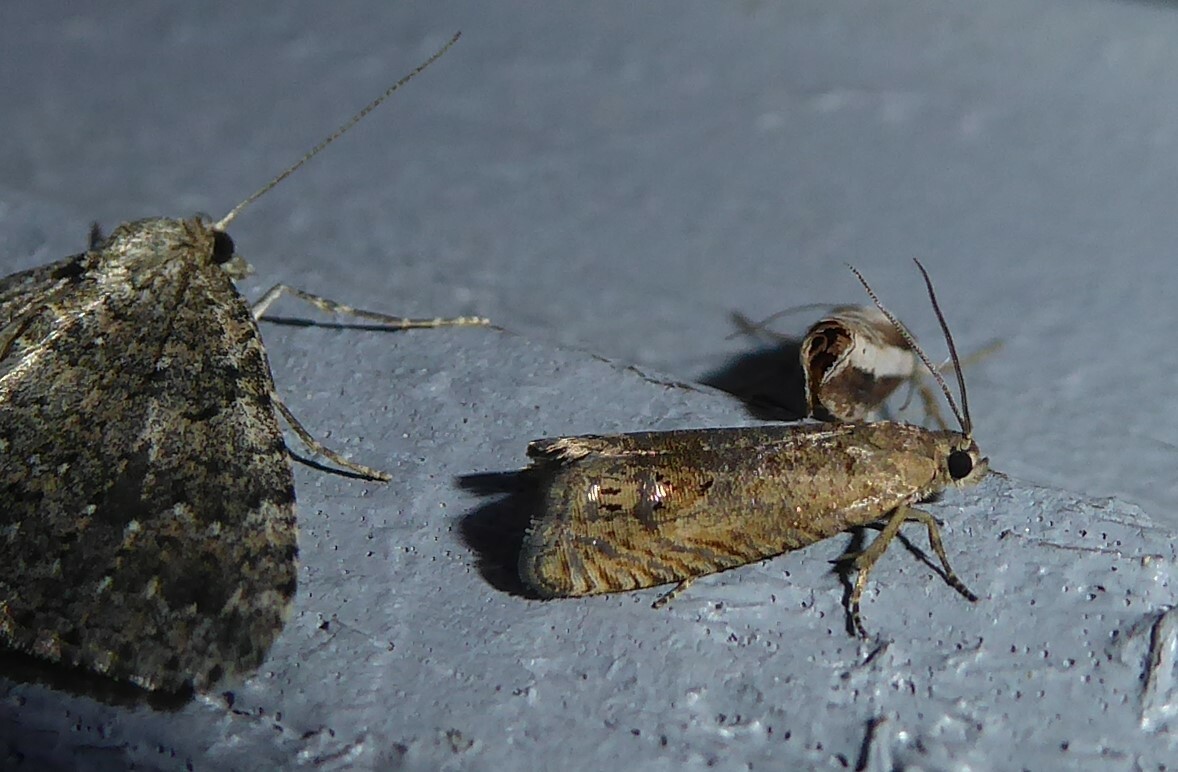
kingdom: Animalia
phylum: Arthropoda
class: Insecta
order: Lepidoptera
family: Tortricidae
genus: Cydia
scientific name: Cydia succedana
